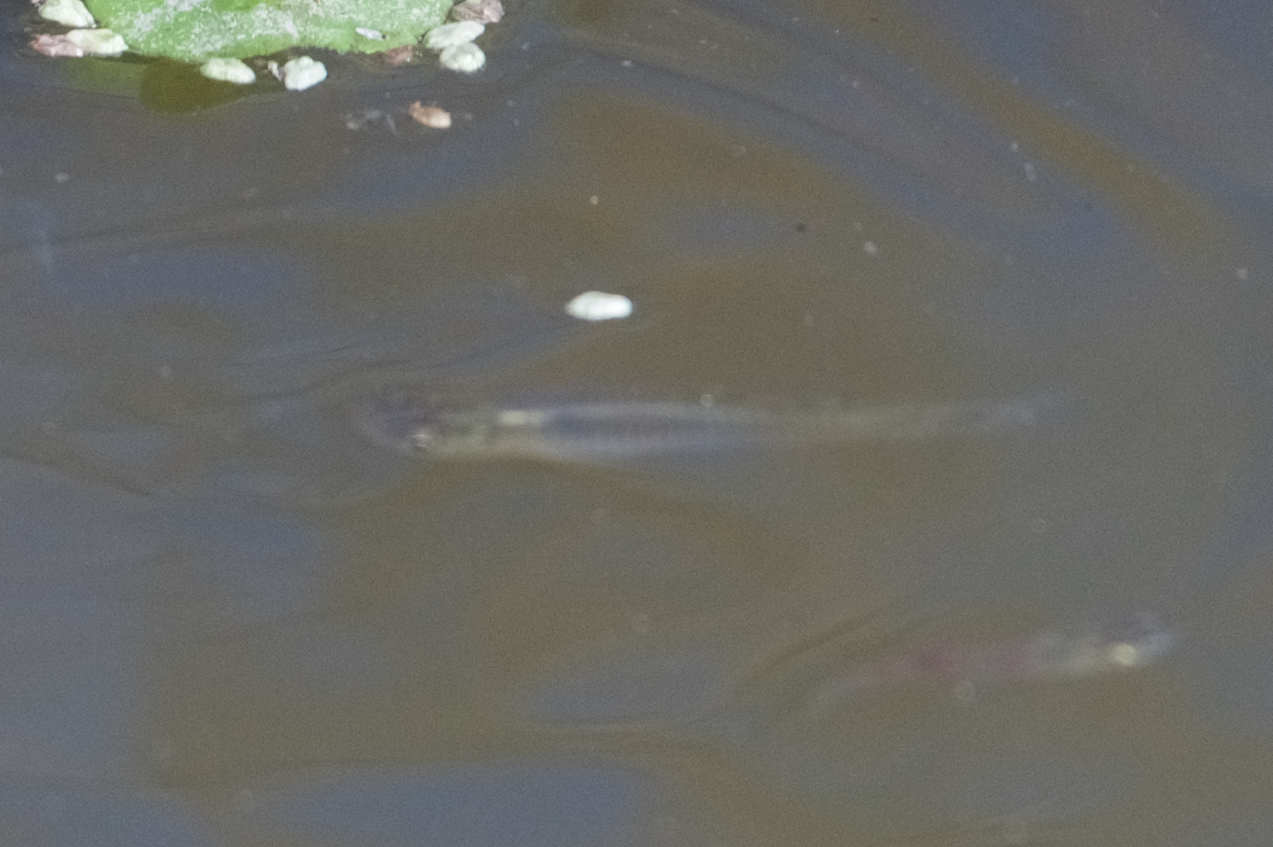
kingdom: Animalia
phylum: Chordata
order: Cyprinodontiformes
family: Poeciliidae
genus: Gambusia
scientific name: Gambusia affinis
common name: Mosquitofish
